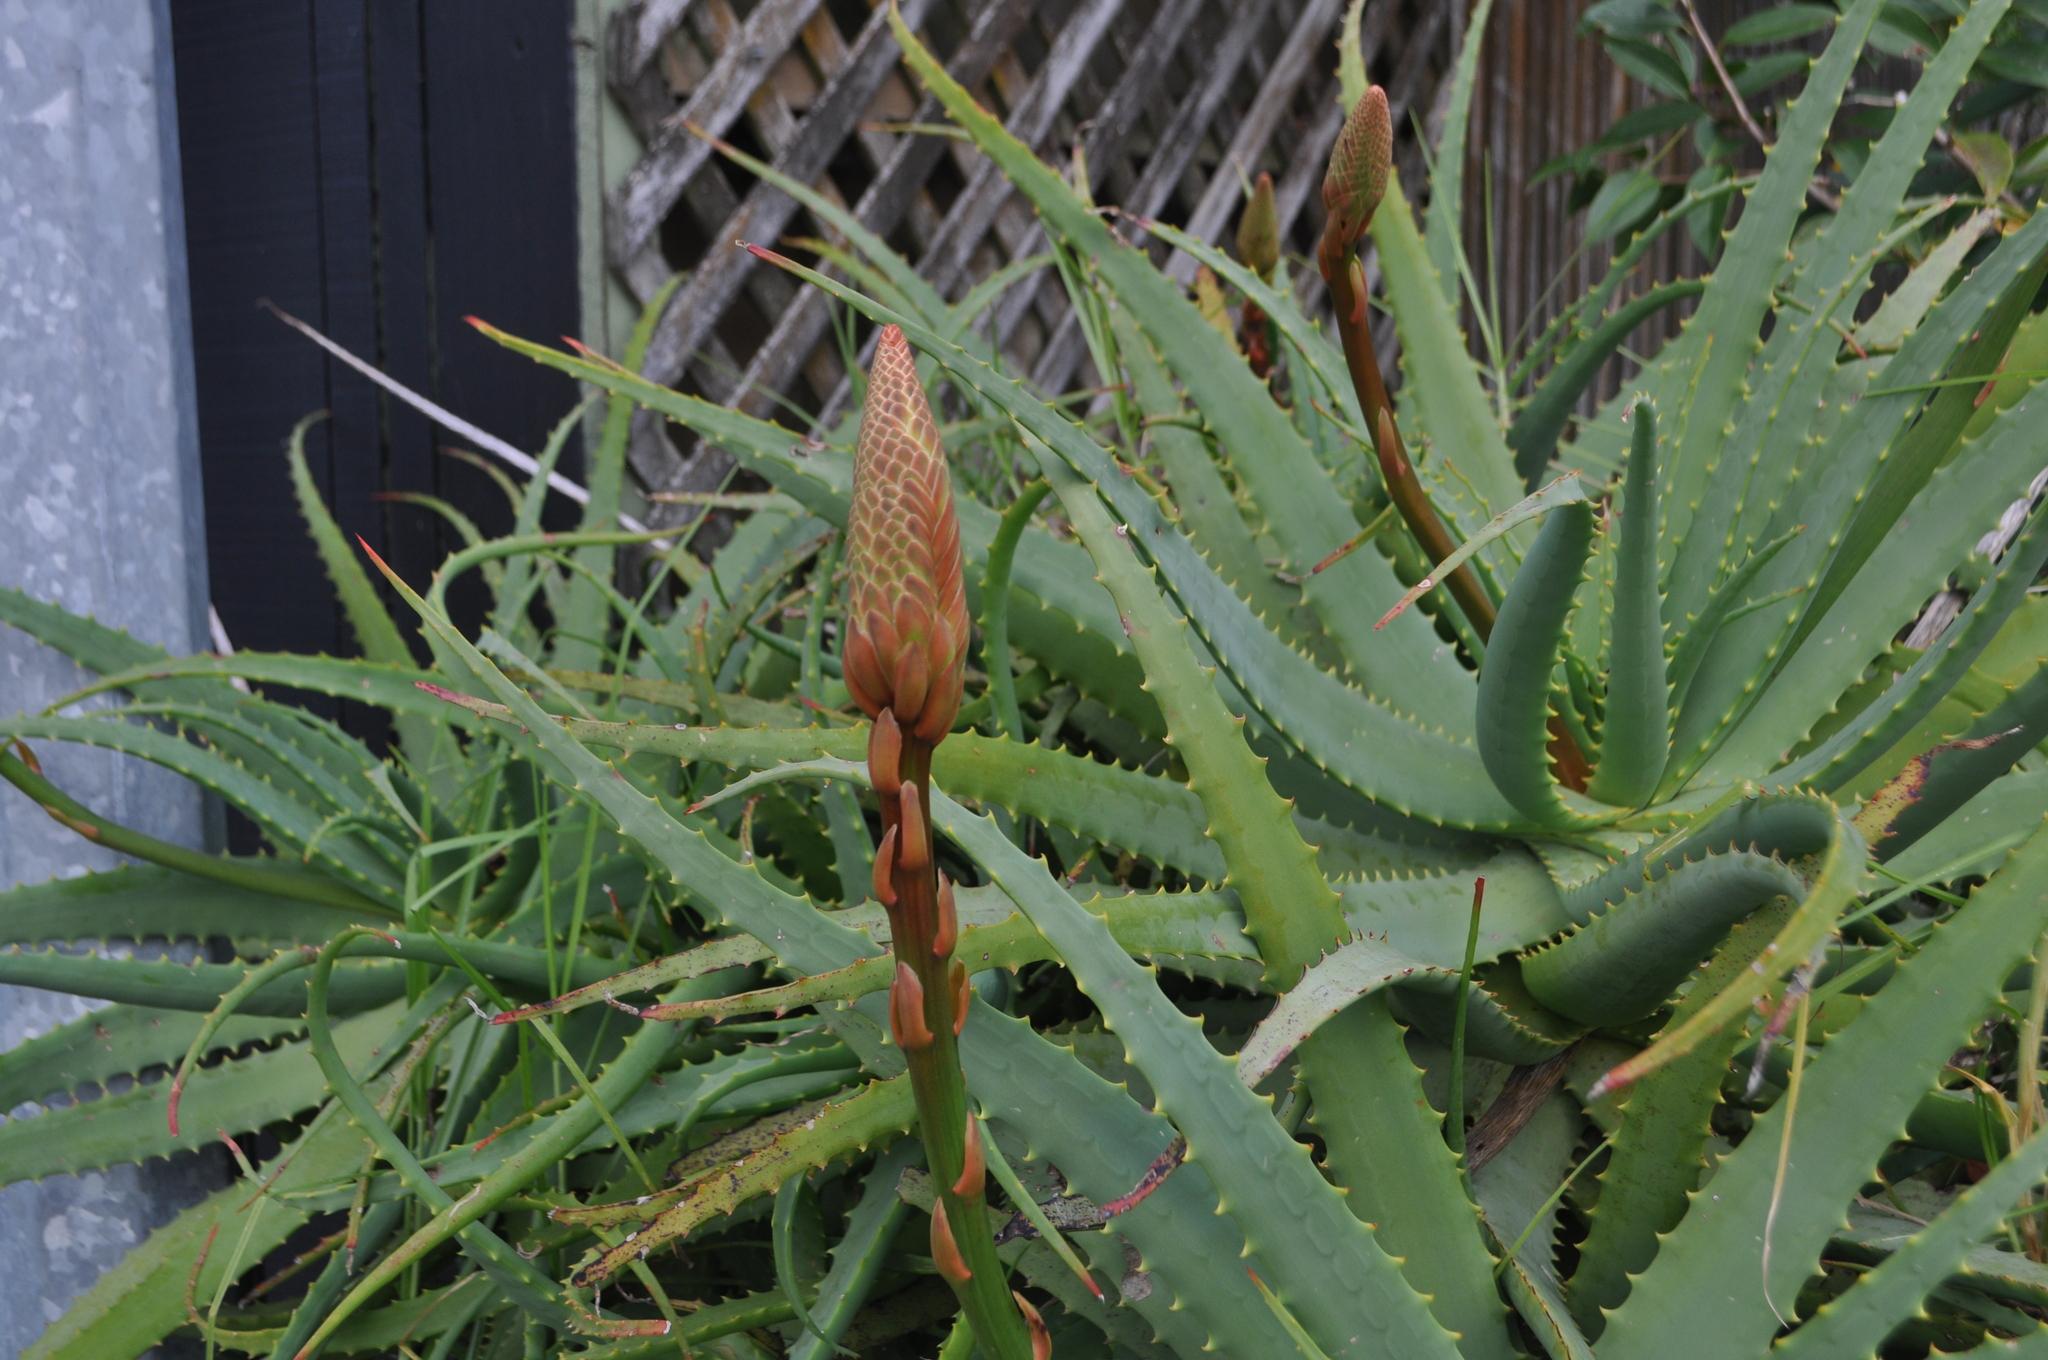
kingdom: Plantae
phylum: Tracheophyta
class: Liliopsida
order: Asparagales
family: Asphodelaceae
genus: Aloe
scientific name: Aloe arborescens
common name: Candelabra aloe
